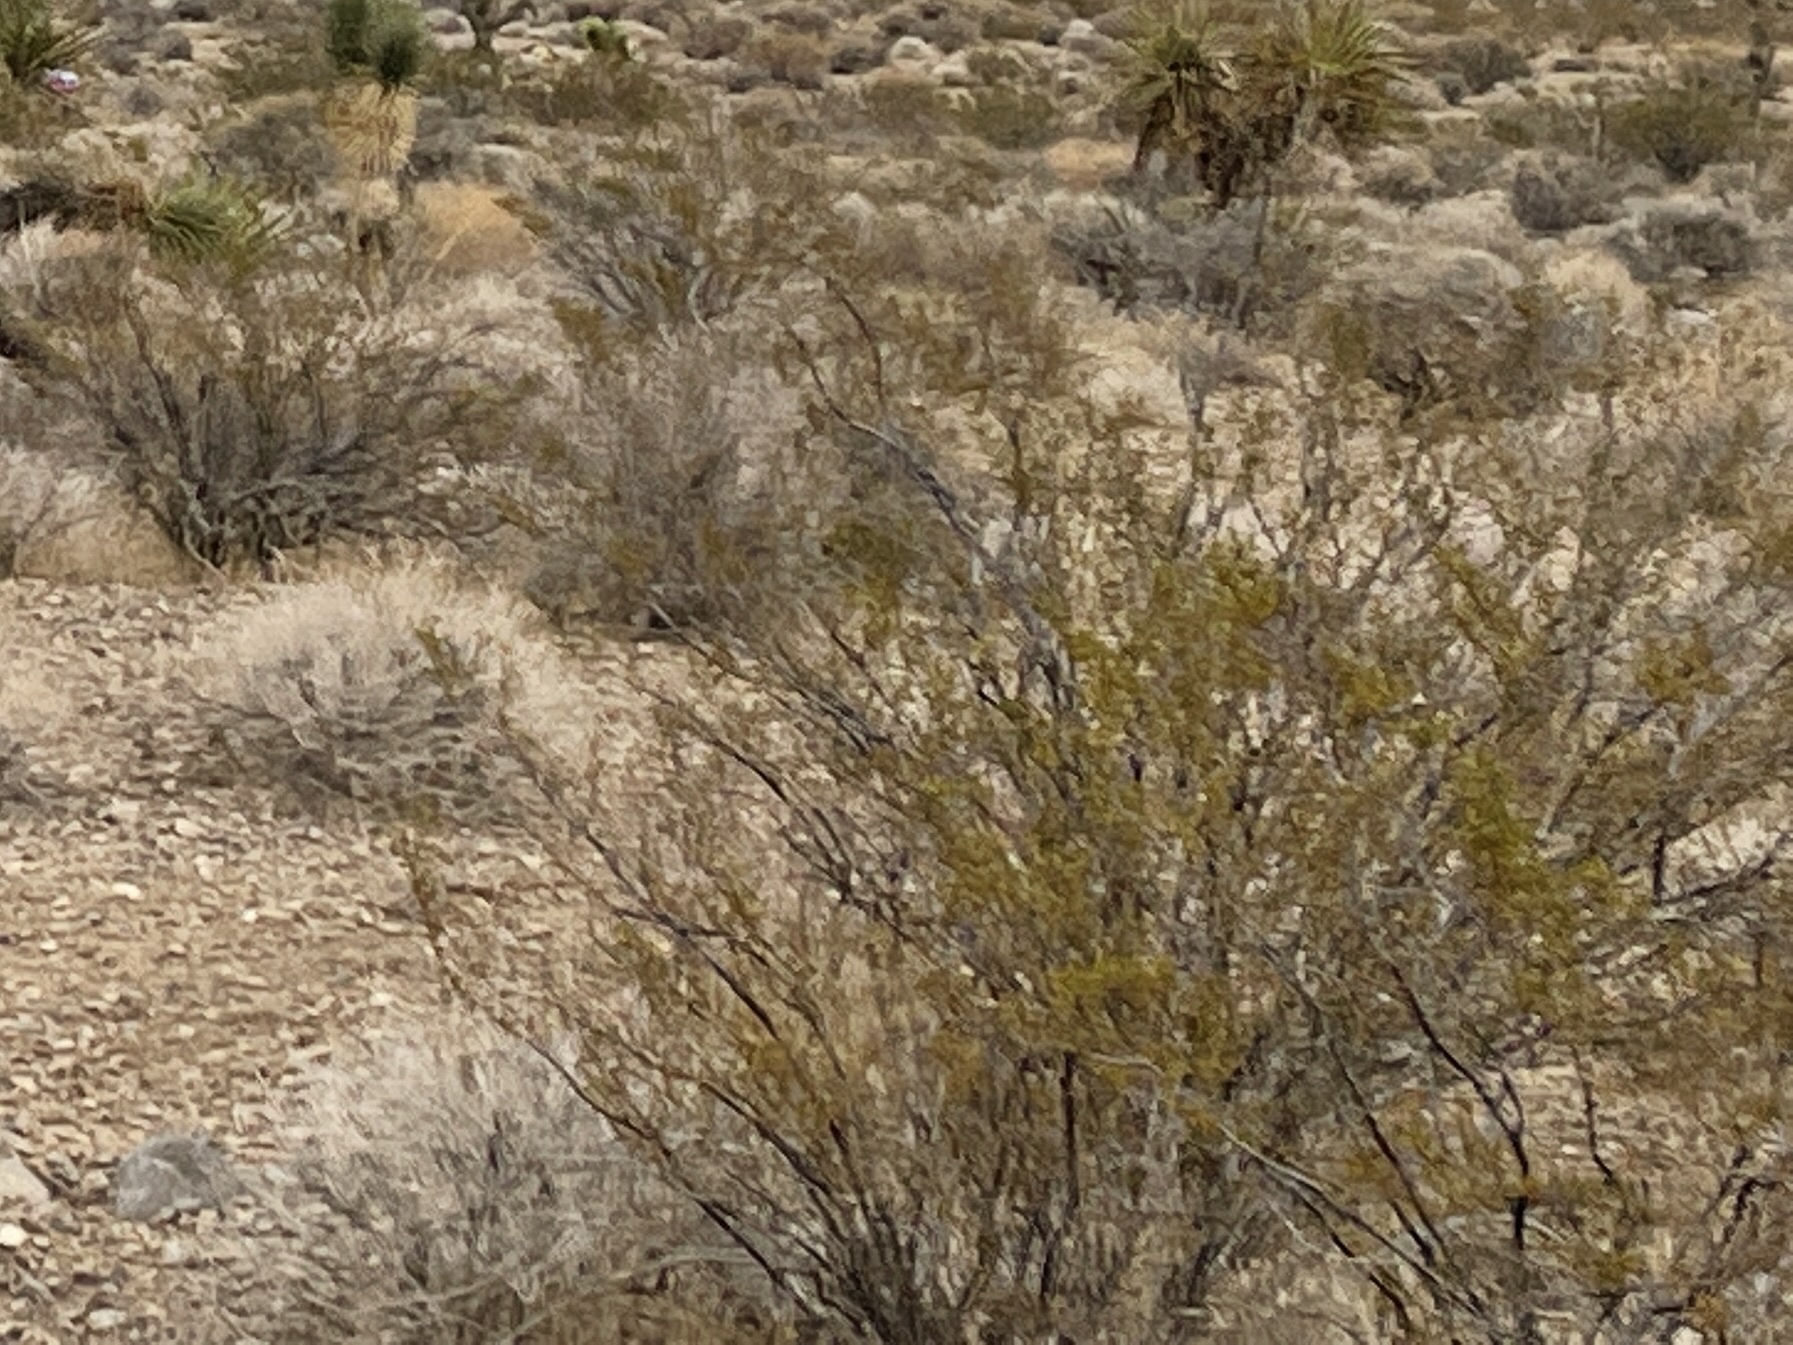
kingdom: Plantae
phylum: Tracheophyta
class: Magnoliopsida
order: Zygophyllales
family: Zygophyllaceae
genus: Larrea
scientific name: Larrea tridentata
